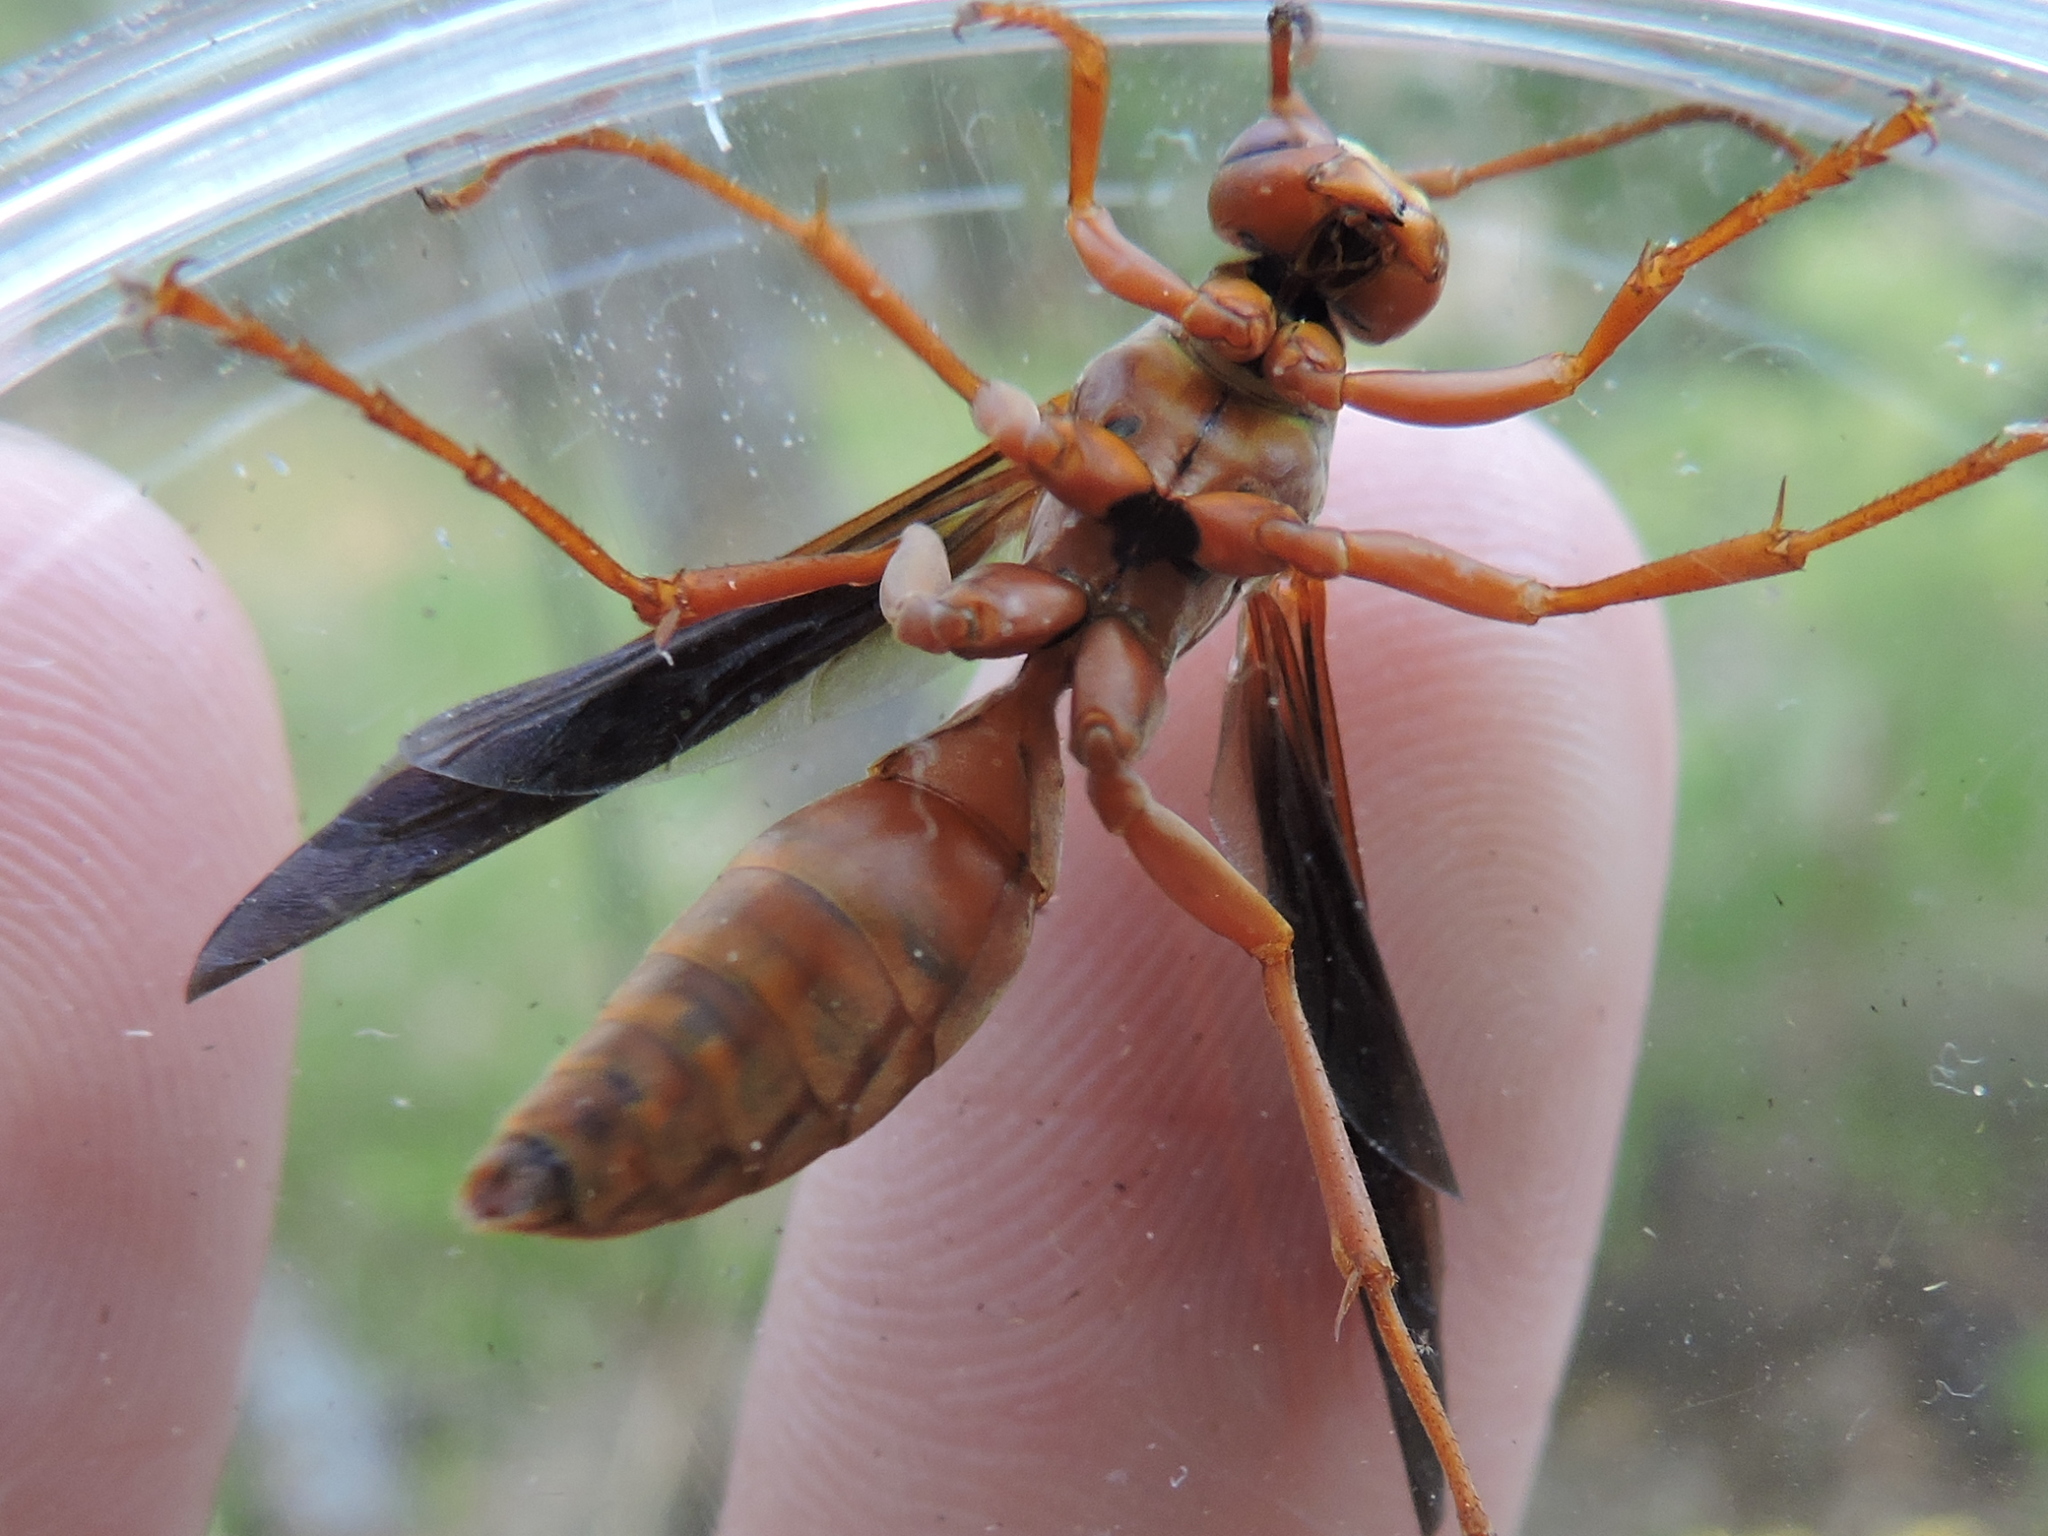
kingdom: Animalia
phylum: Arthropoda
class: Insecta
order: Hymenoptera
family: Eumenidae
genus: Polistes
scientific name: Polistes carolina
